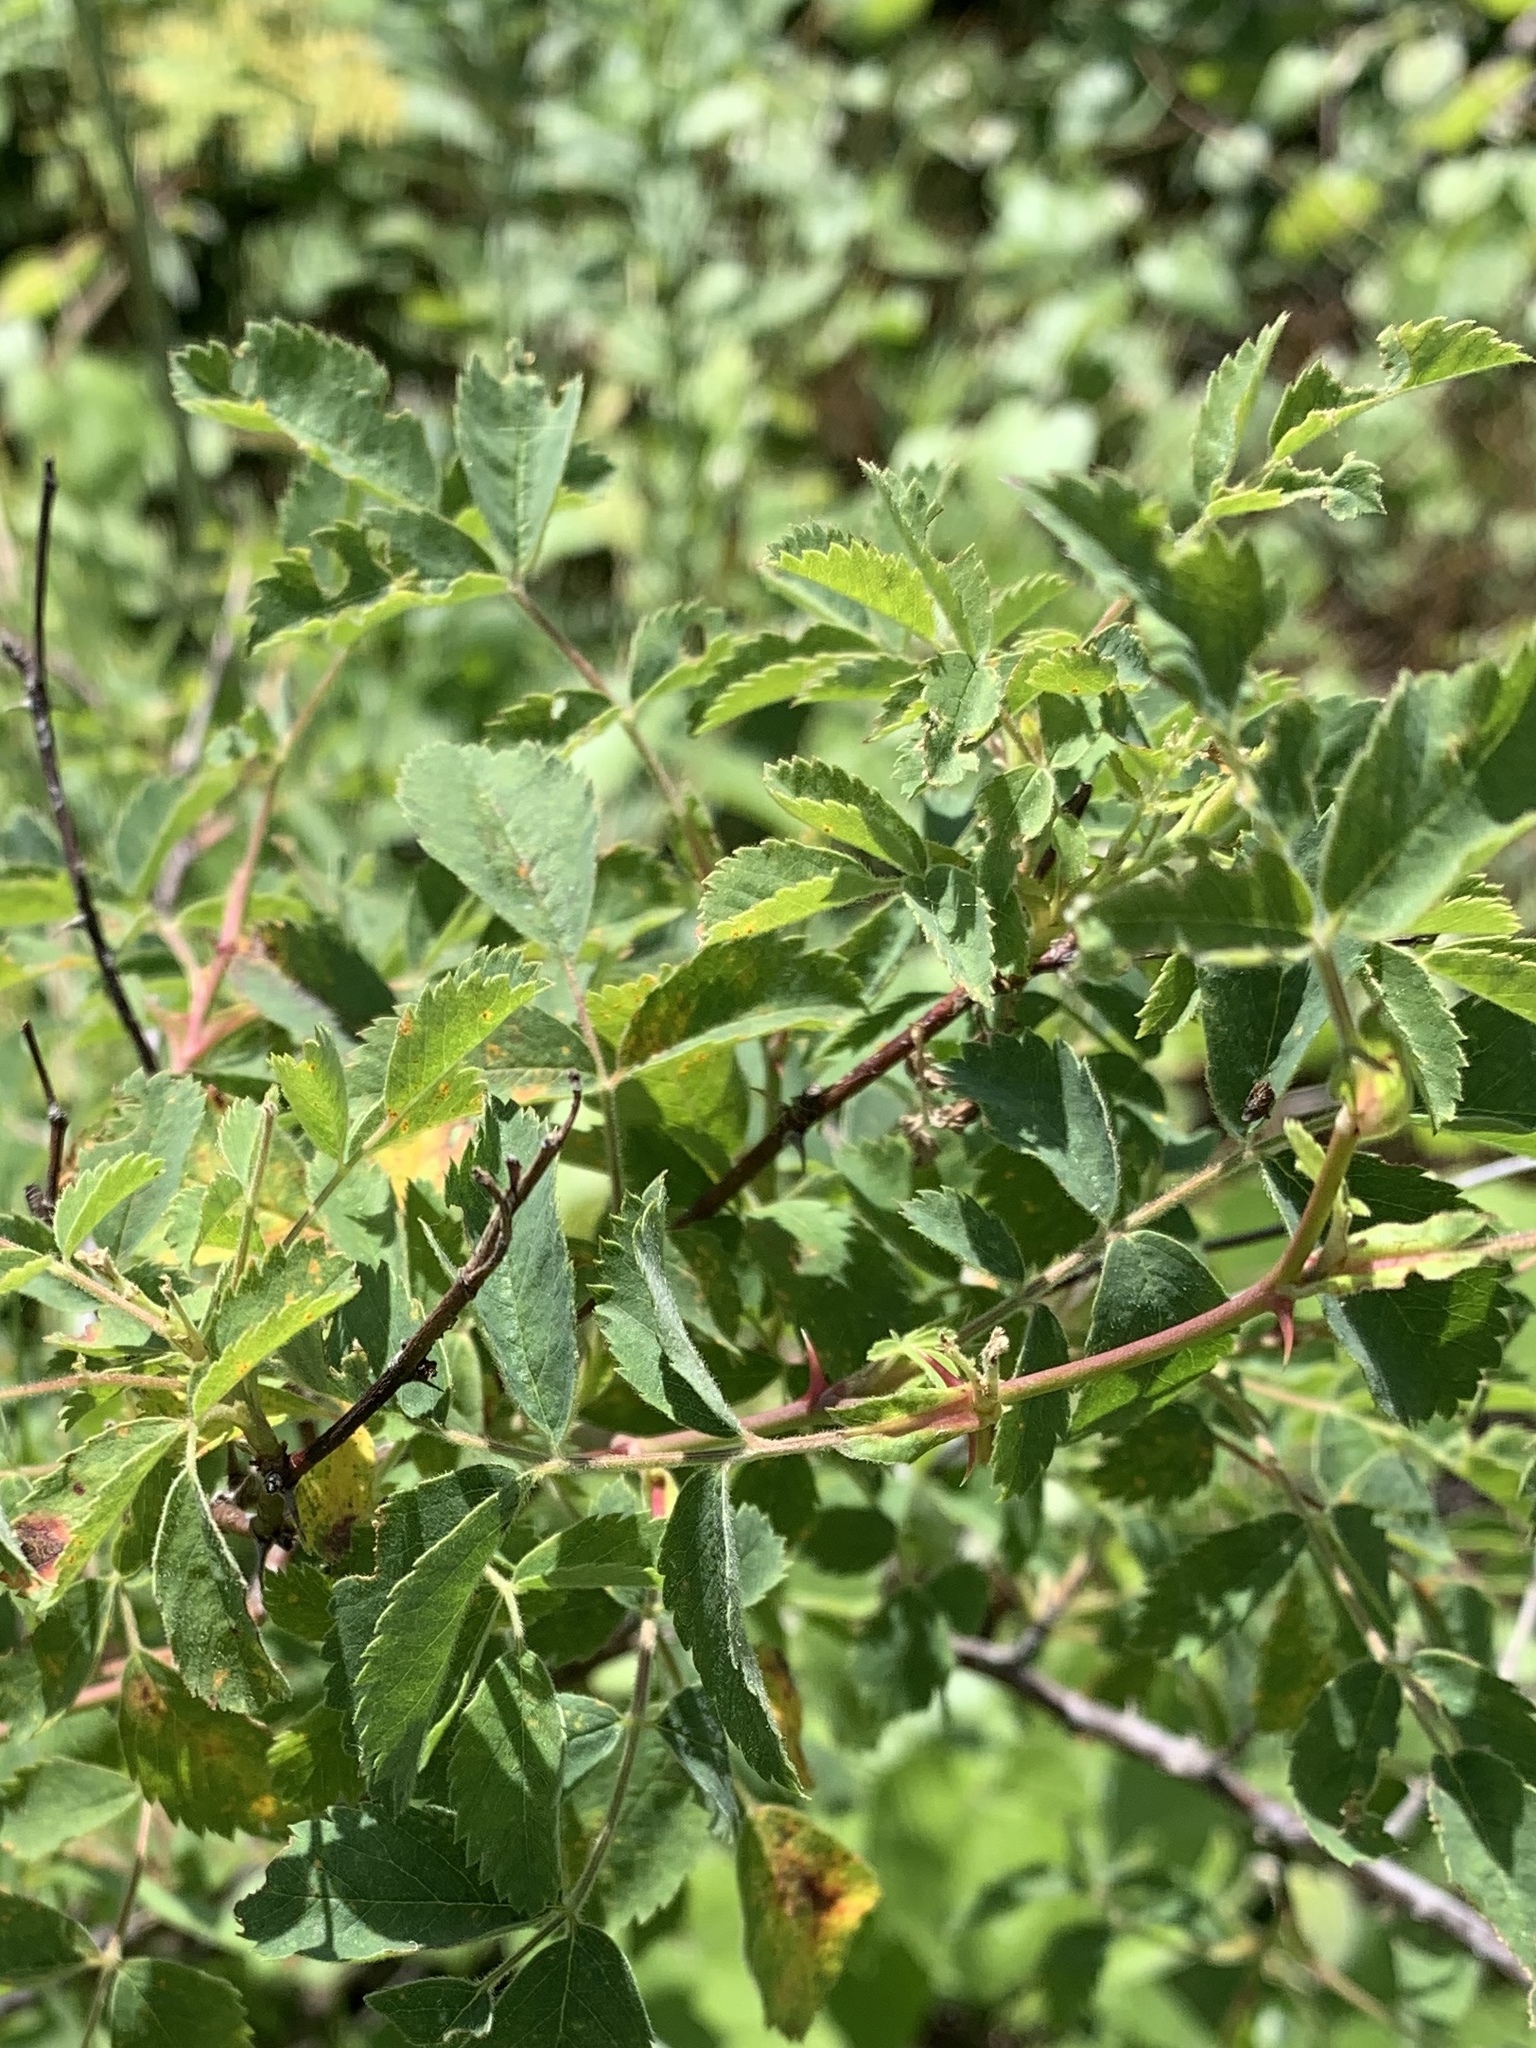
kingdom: Plantae
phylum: Tracheophyta
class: Magnoliopsida
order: Rosales
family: Rosaceae
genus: Rosa
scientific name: Rosa californica
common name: California rose
